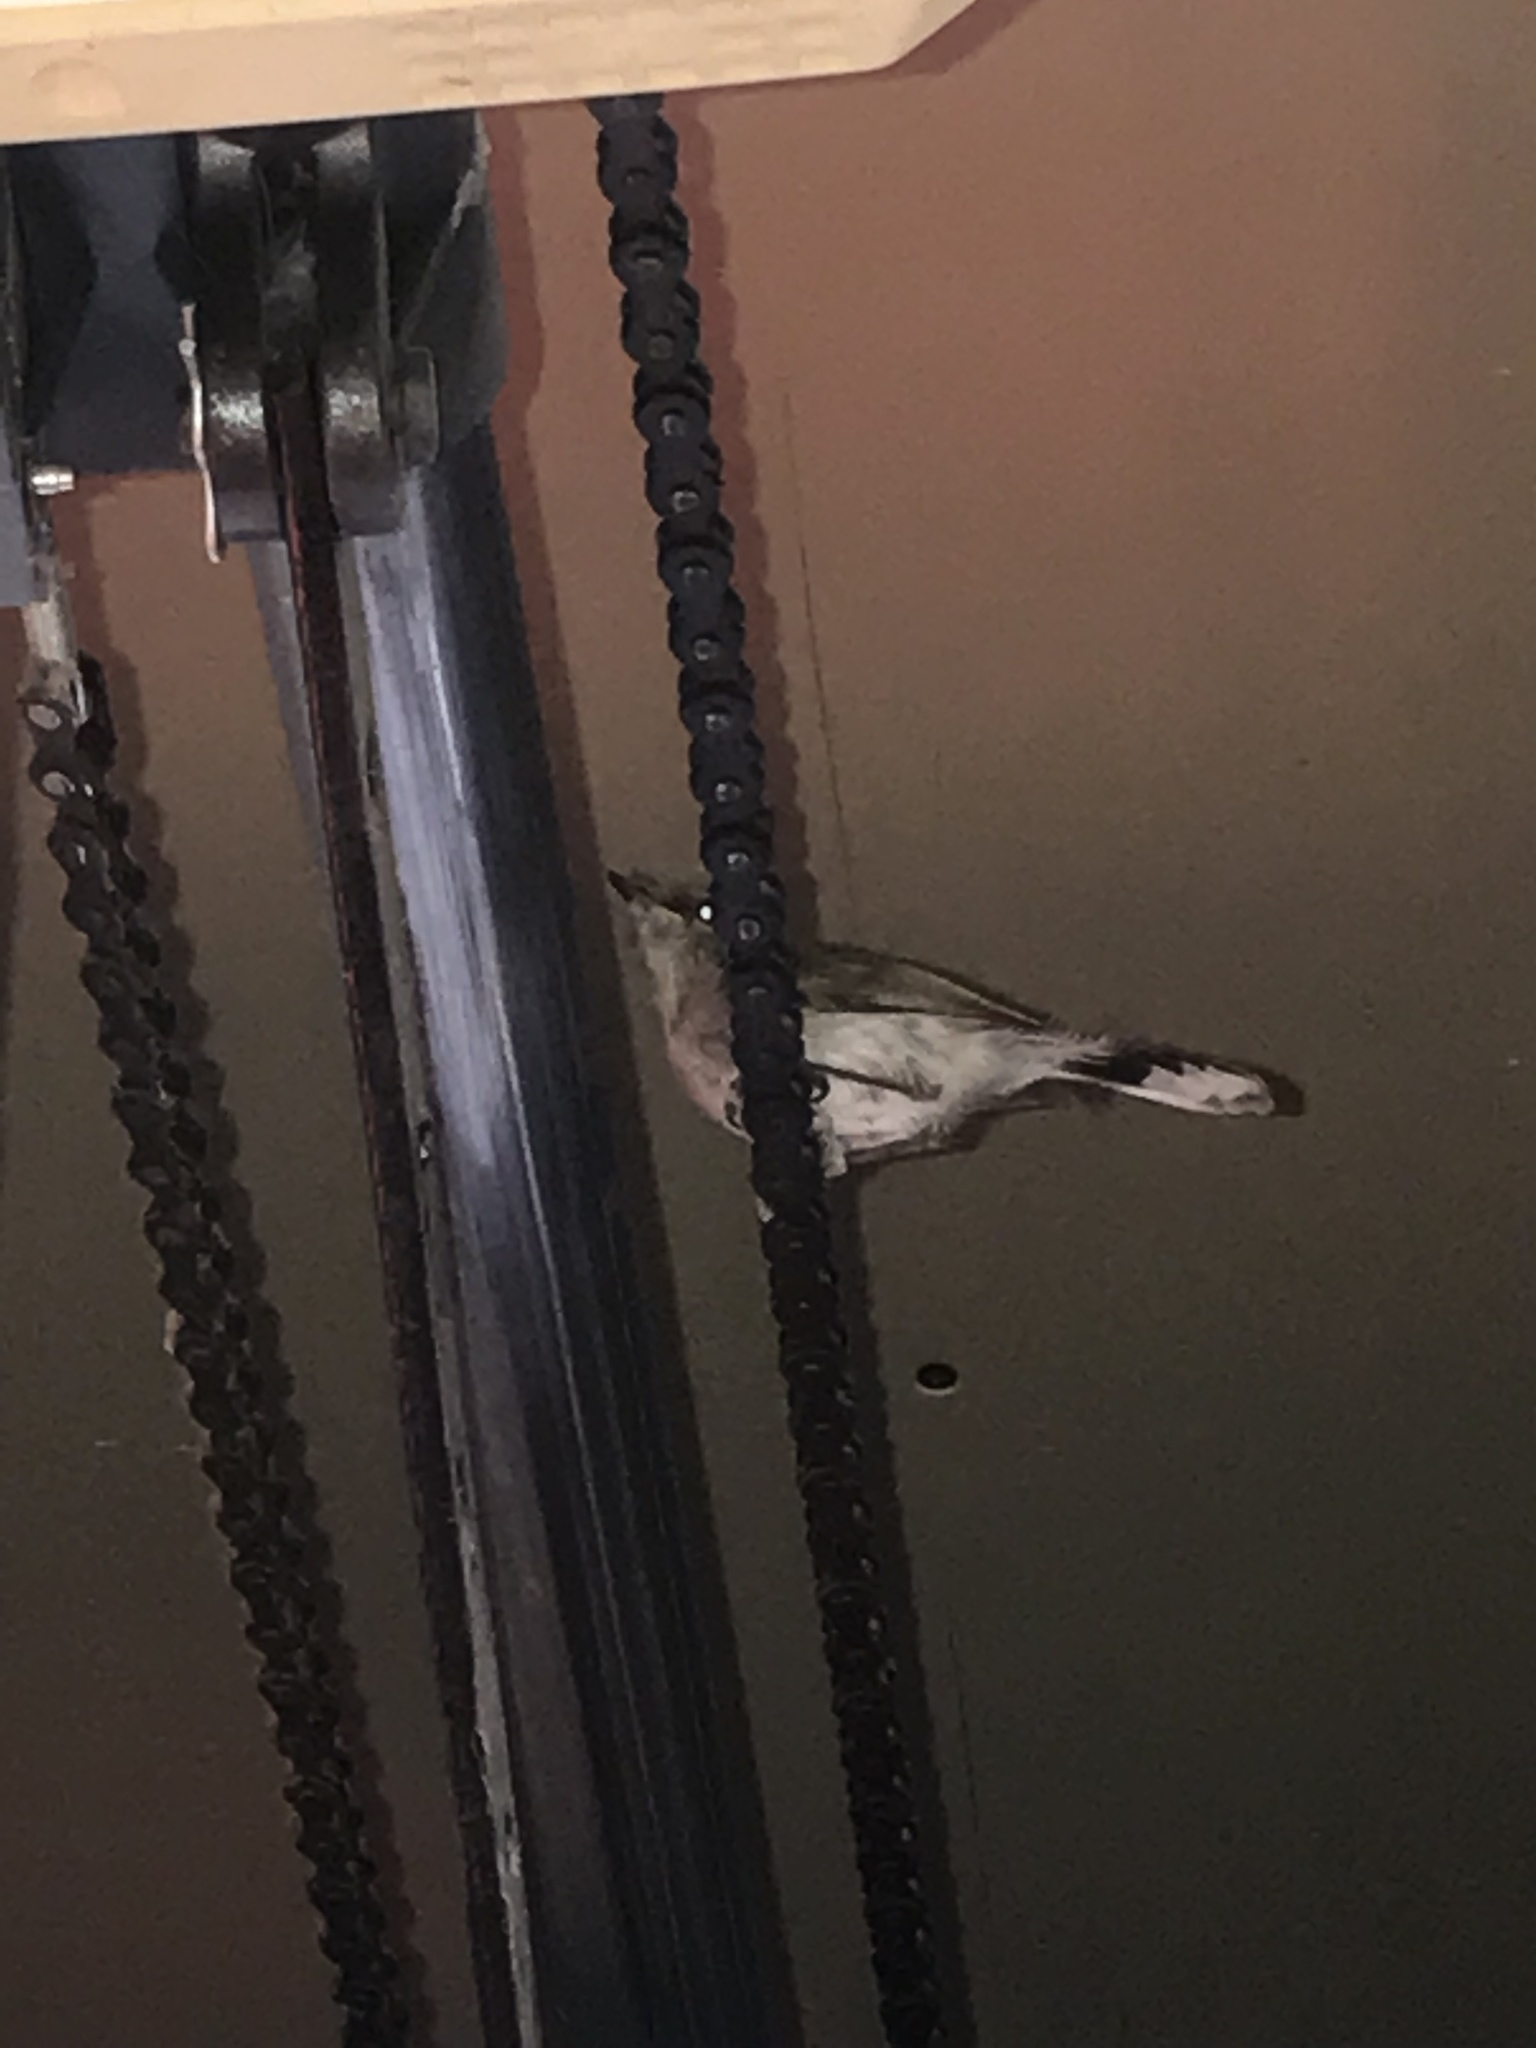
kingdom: Animalia
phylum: Chordata
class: Aves
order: Passeriformes
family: Acanthizidae
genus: Gerygone
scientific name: Gerygone igata
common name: Grey gerygone
